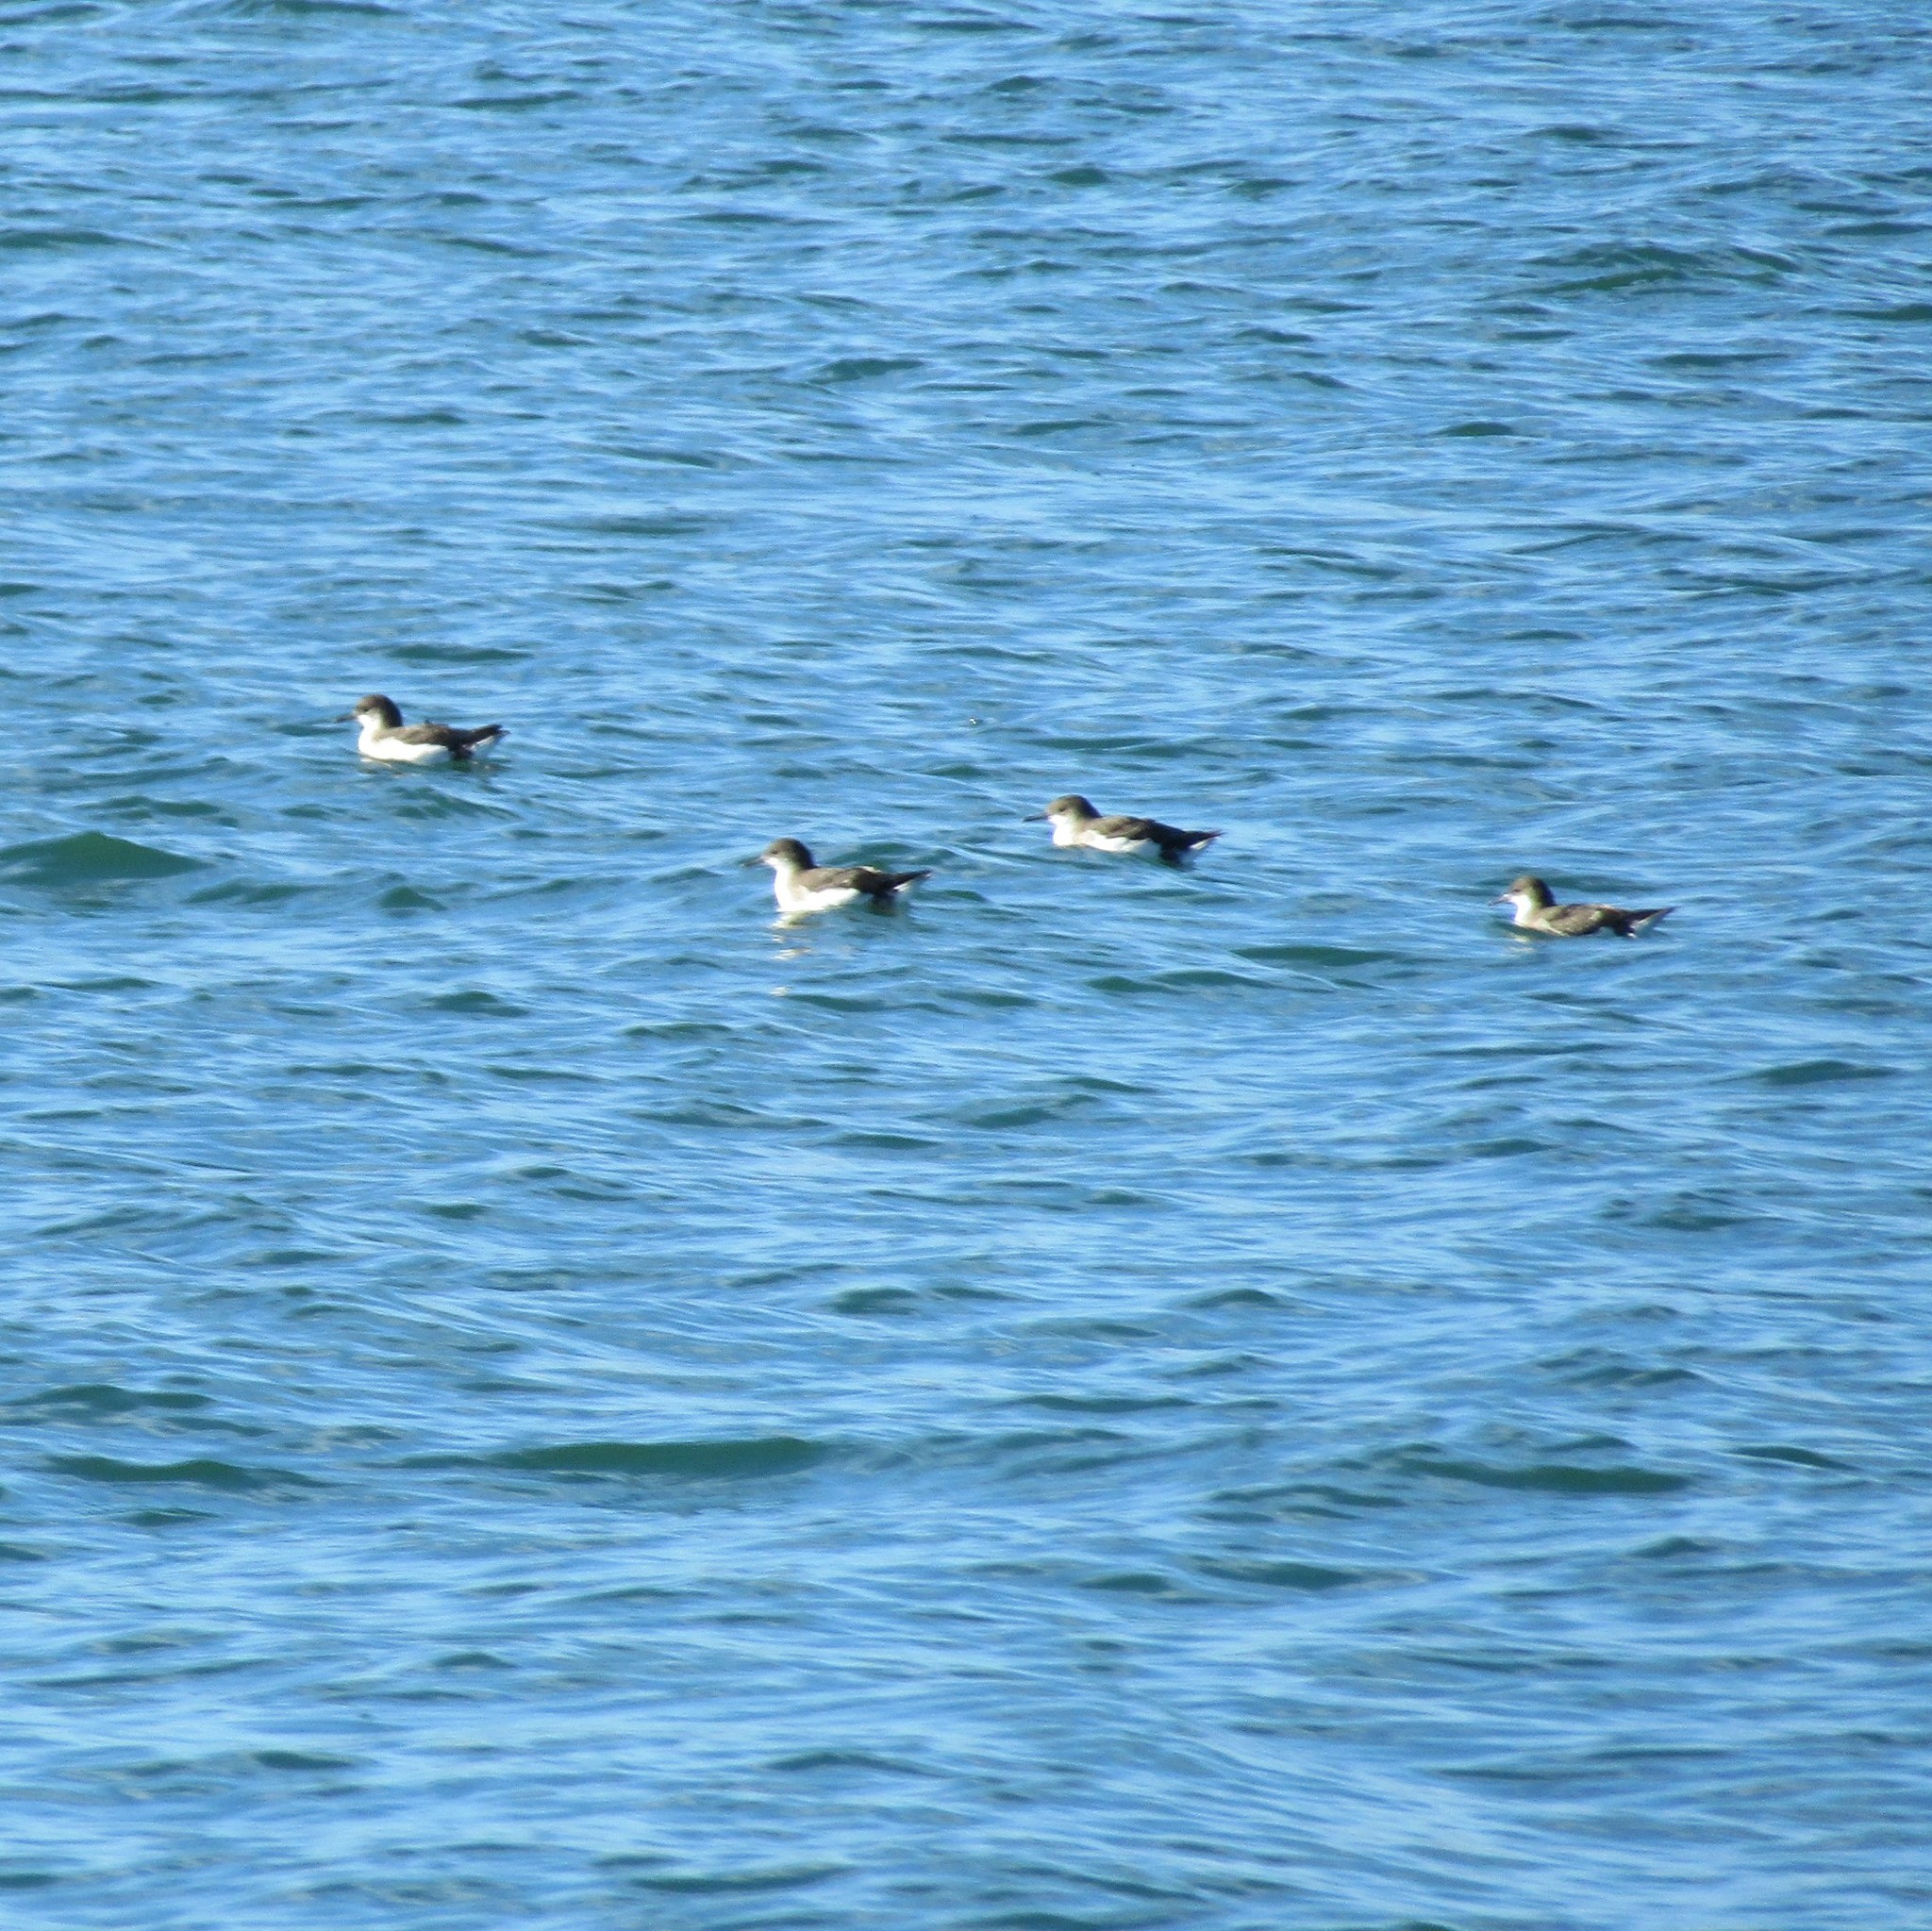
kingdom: Animalia
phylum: Chordata
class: Aves
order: Procellariiformes
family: Procellariidae
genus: Puffinus
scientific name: Puffinus gavia
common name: Fluttering shearwater
